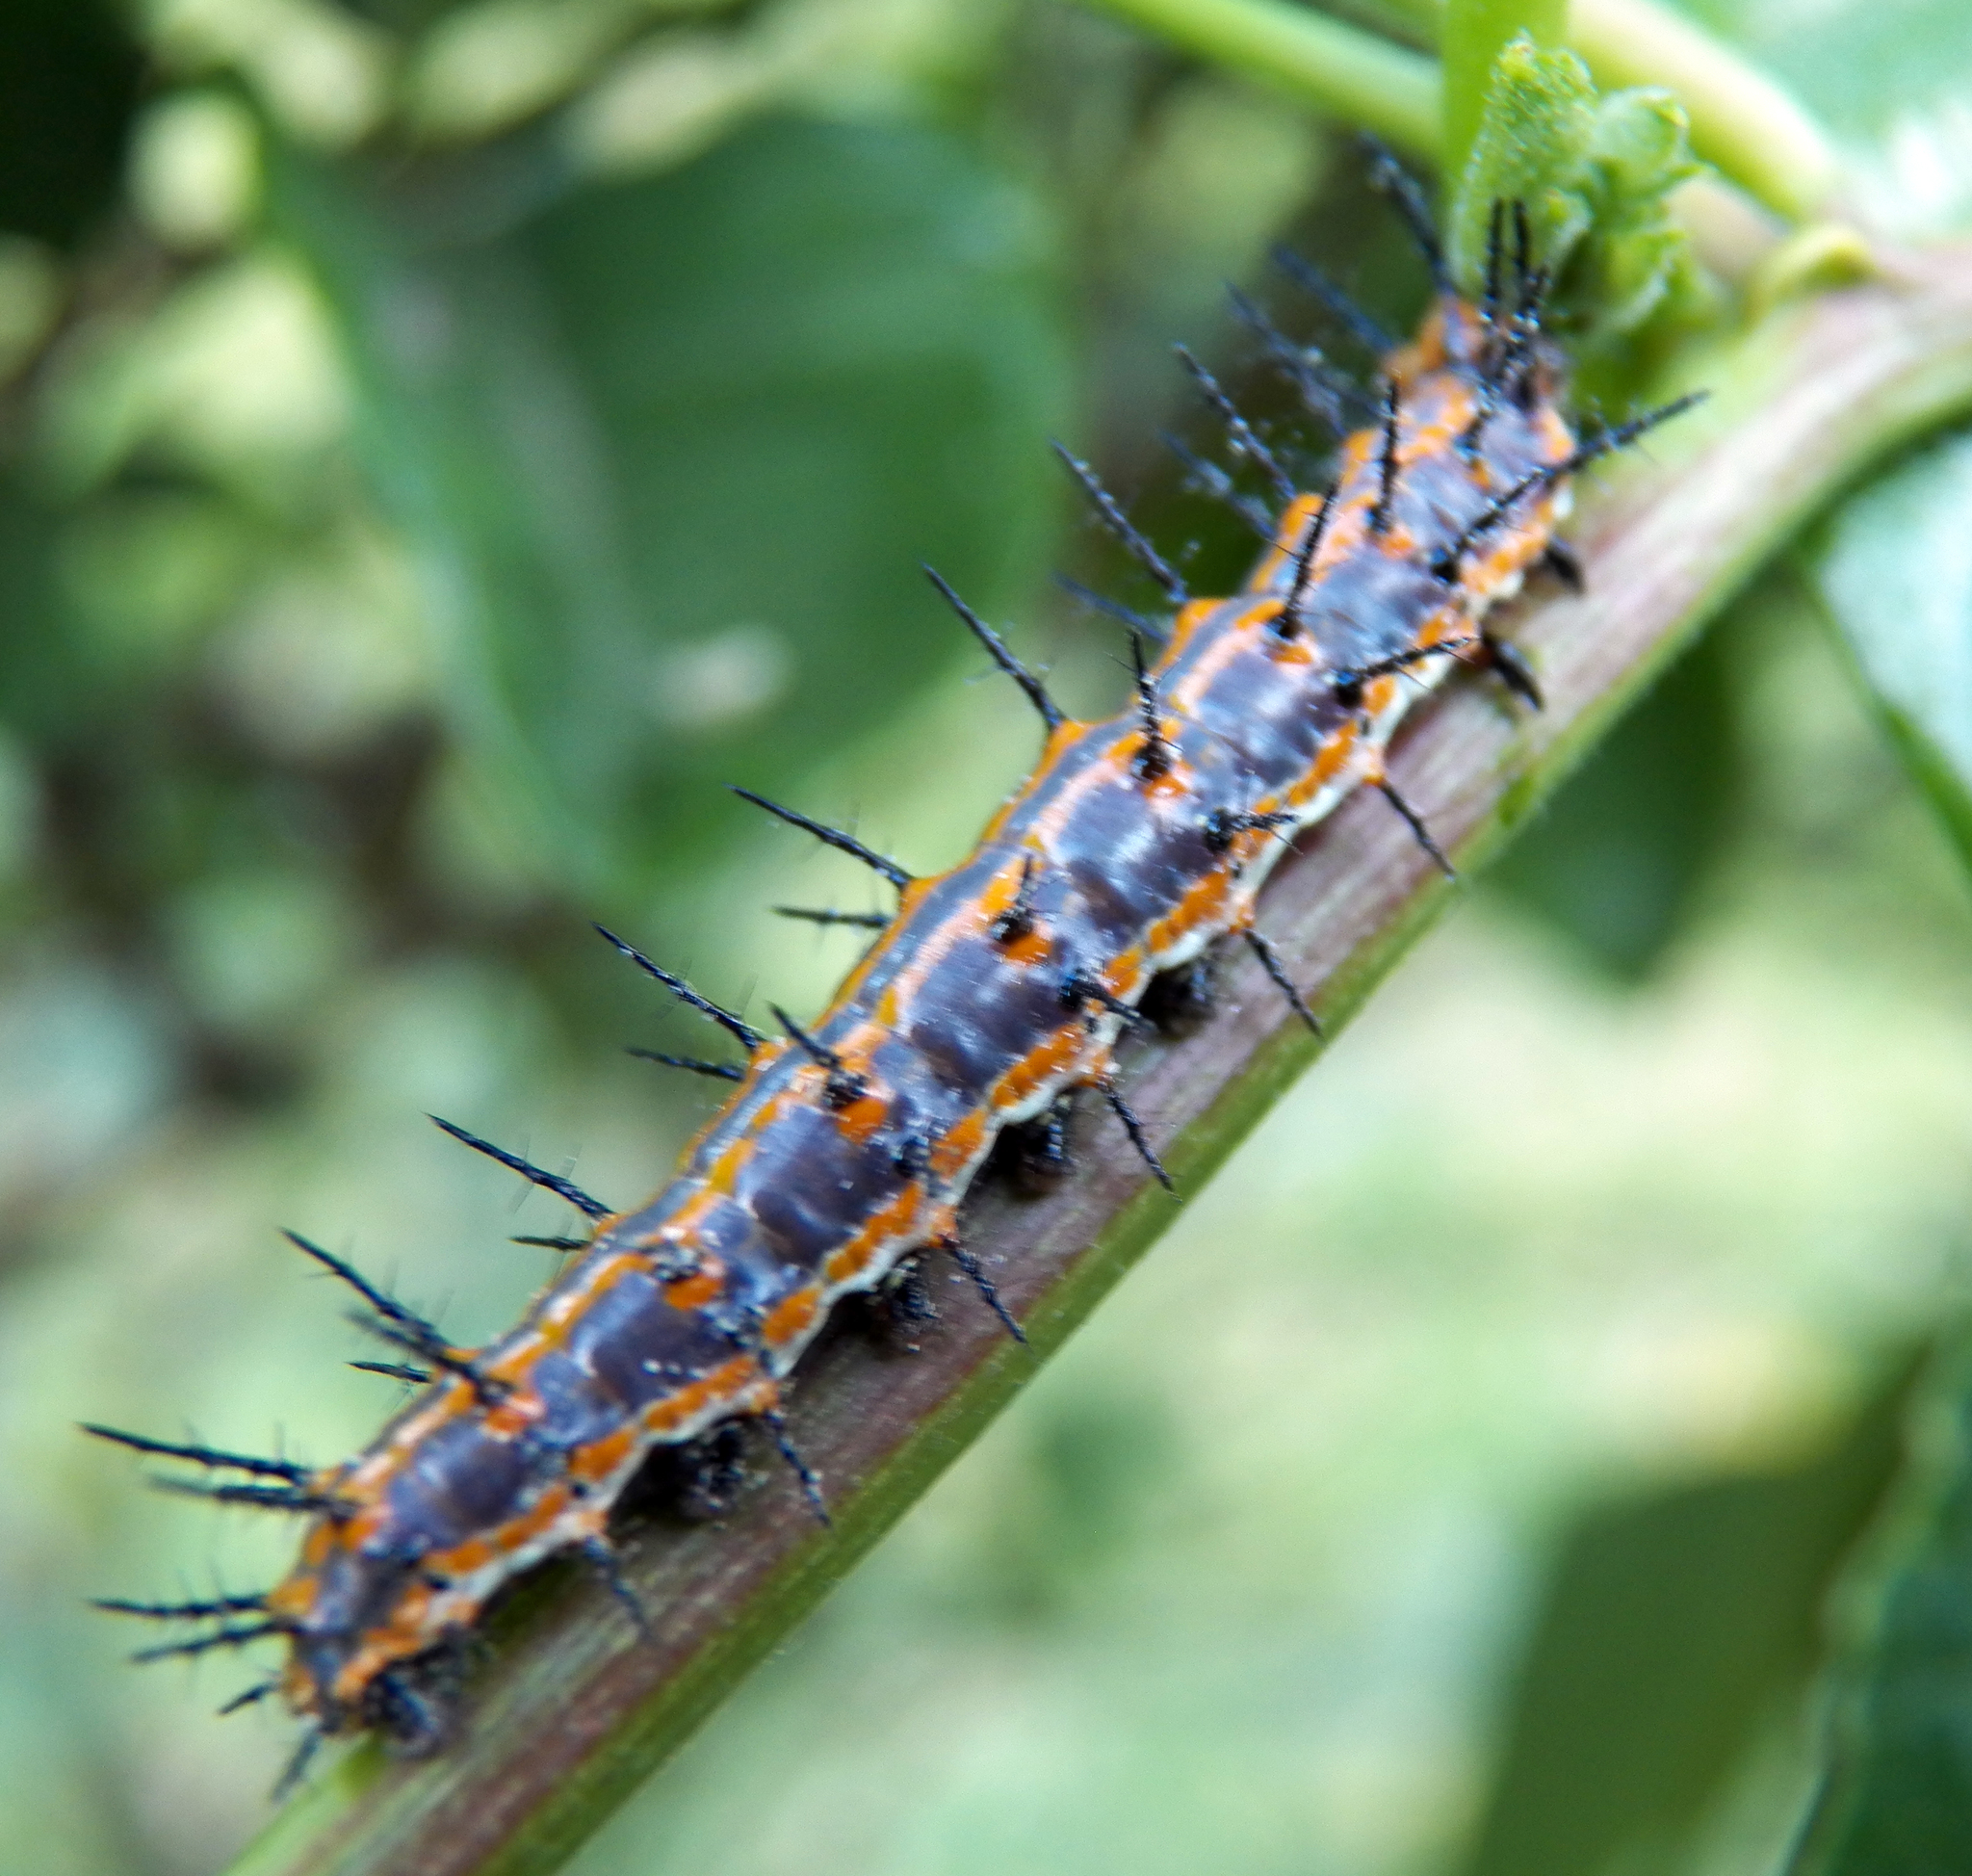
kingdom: Animalia
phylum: Arthropoda
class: Insecta
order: Lepidoptera
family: Nymphalidae
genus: Dione
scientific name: Dione vanillae
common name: Gulf fritillary
